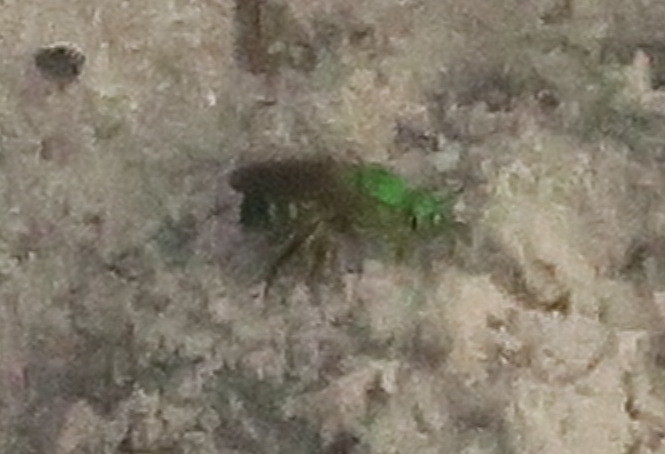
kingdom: Animalia
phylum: Arthropoda
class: Insecta
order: Hymenoptera
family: Halictidae
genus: Agapostemon
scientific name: Agapostemon splendens
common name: Brown-winged striped sweat bee
